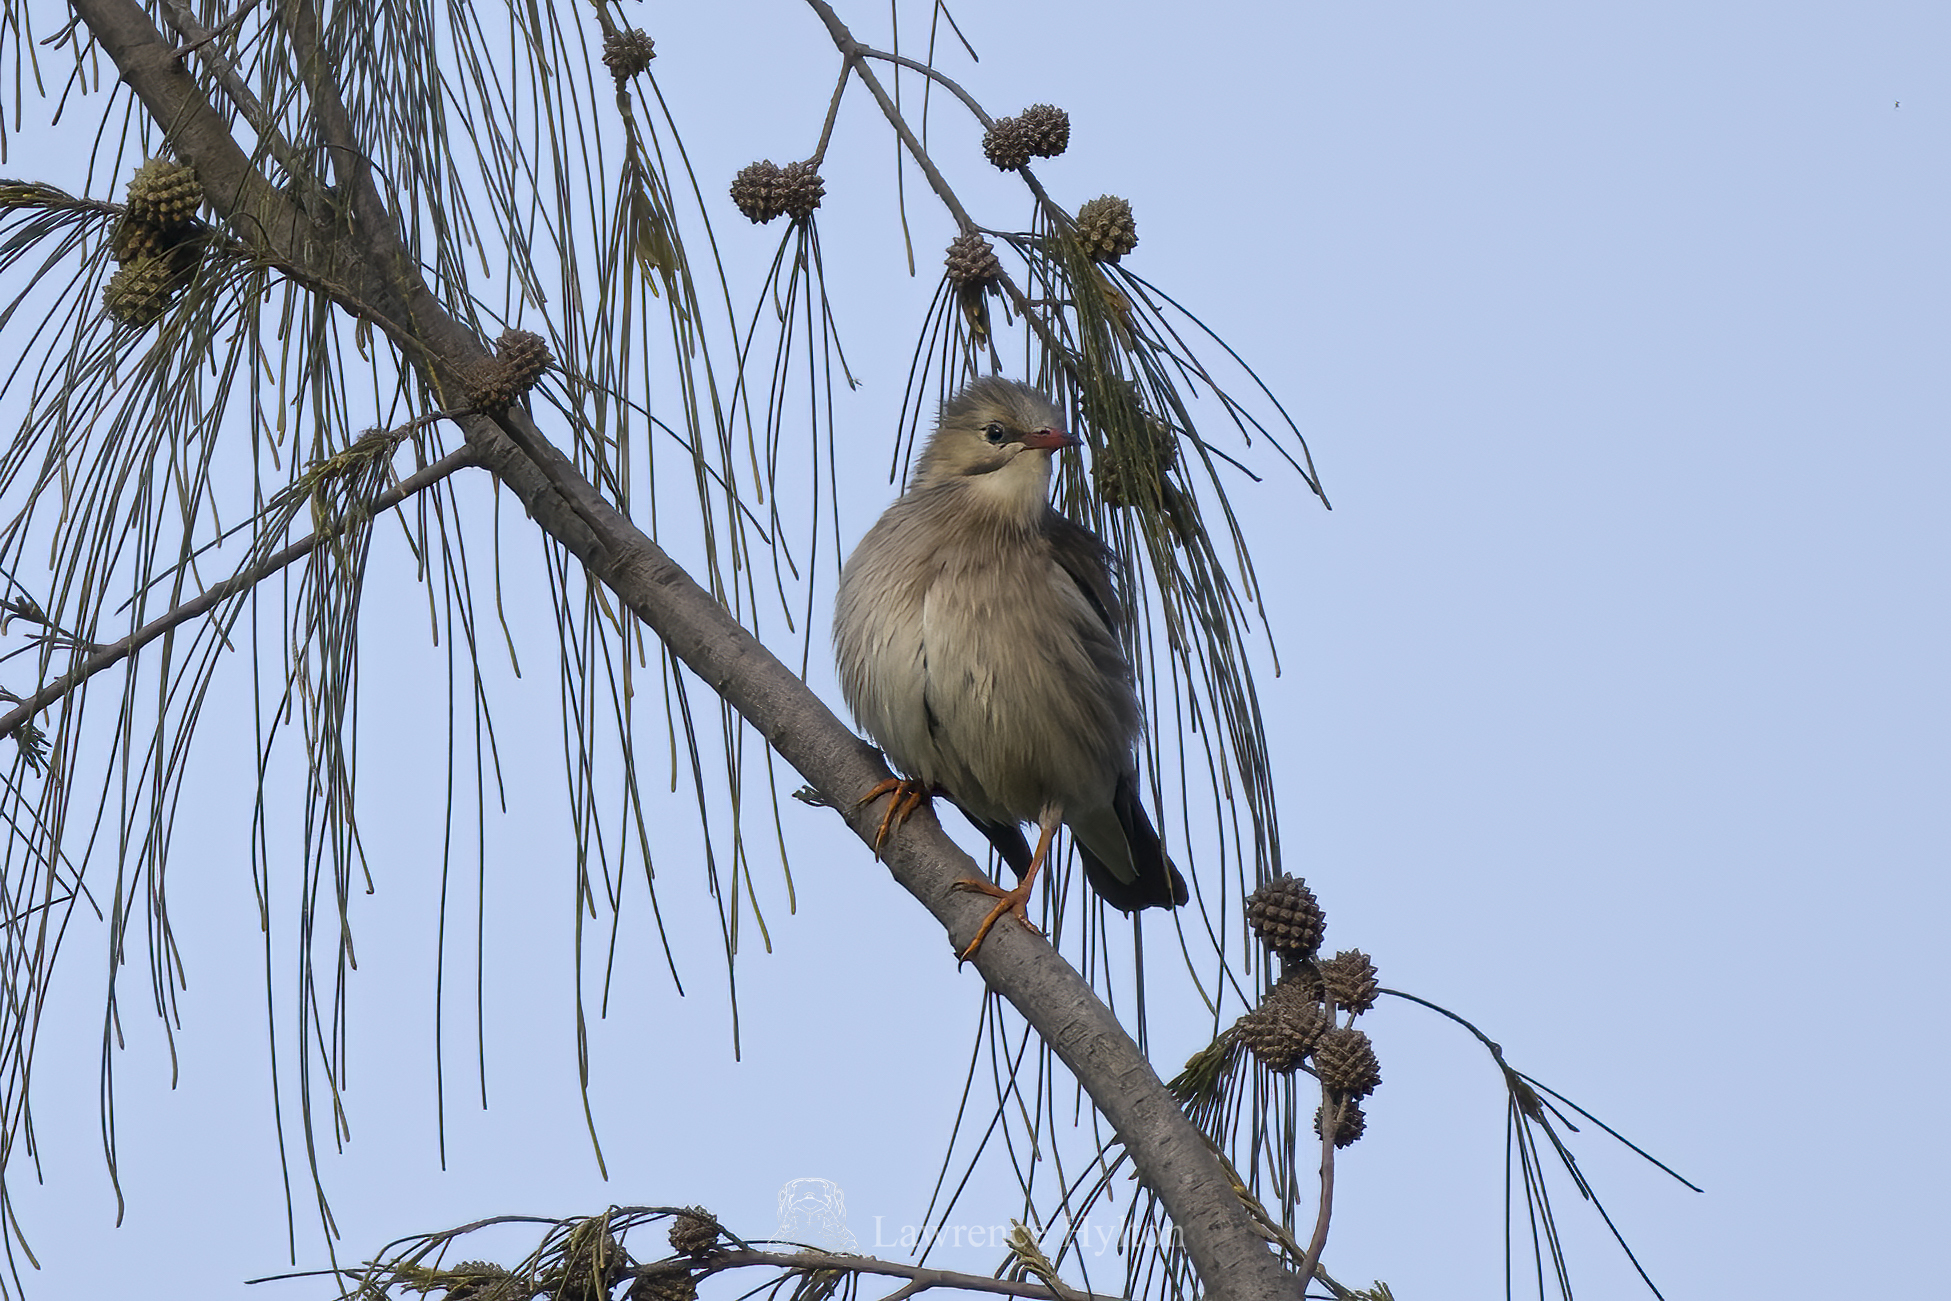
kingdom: Animalia
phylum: Chordata
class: Aves
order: Passeriformes
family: Sturnidae
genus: Spodiopsar
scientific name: Spodiopsar sericeus
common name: Red-billed starling
